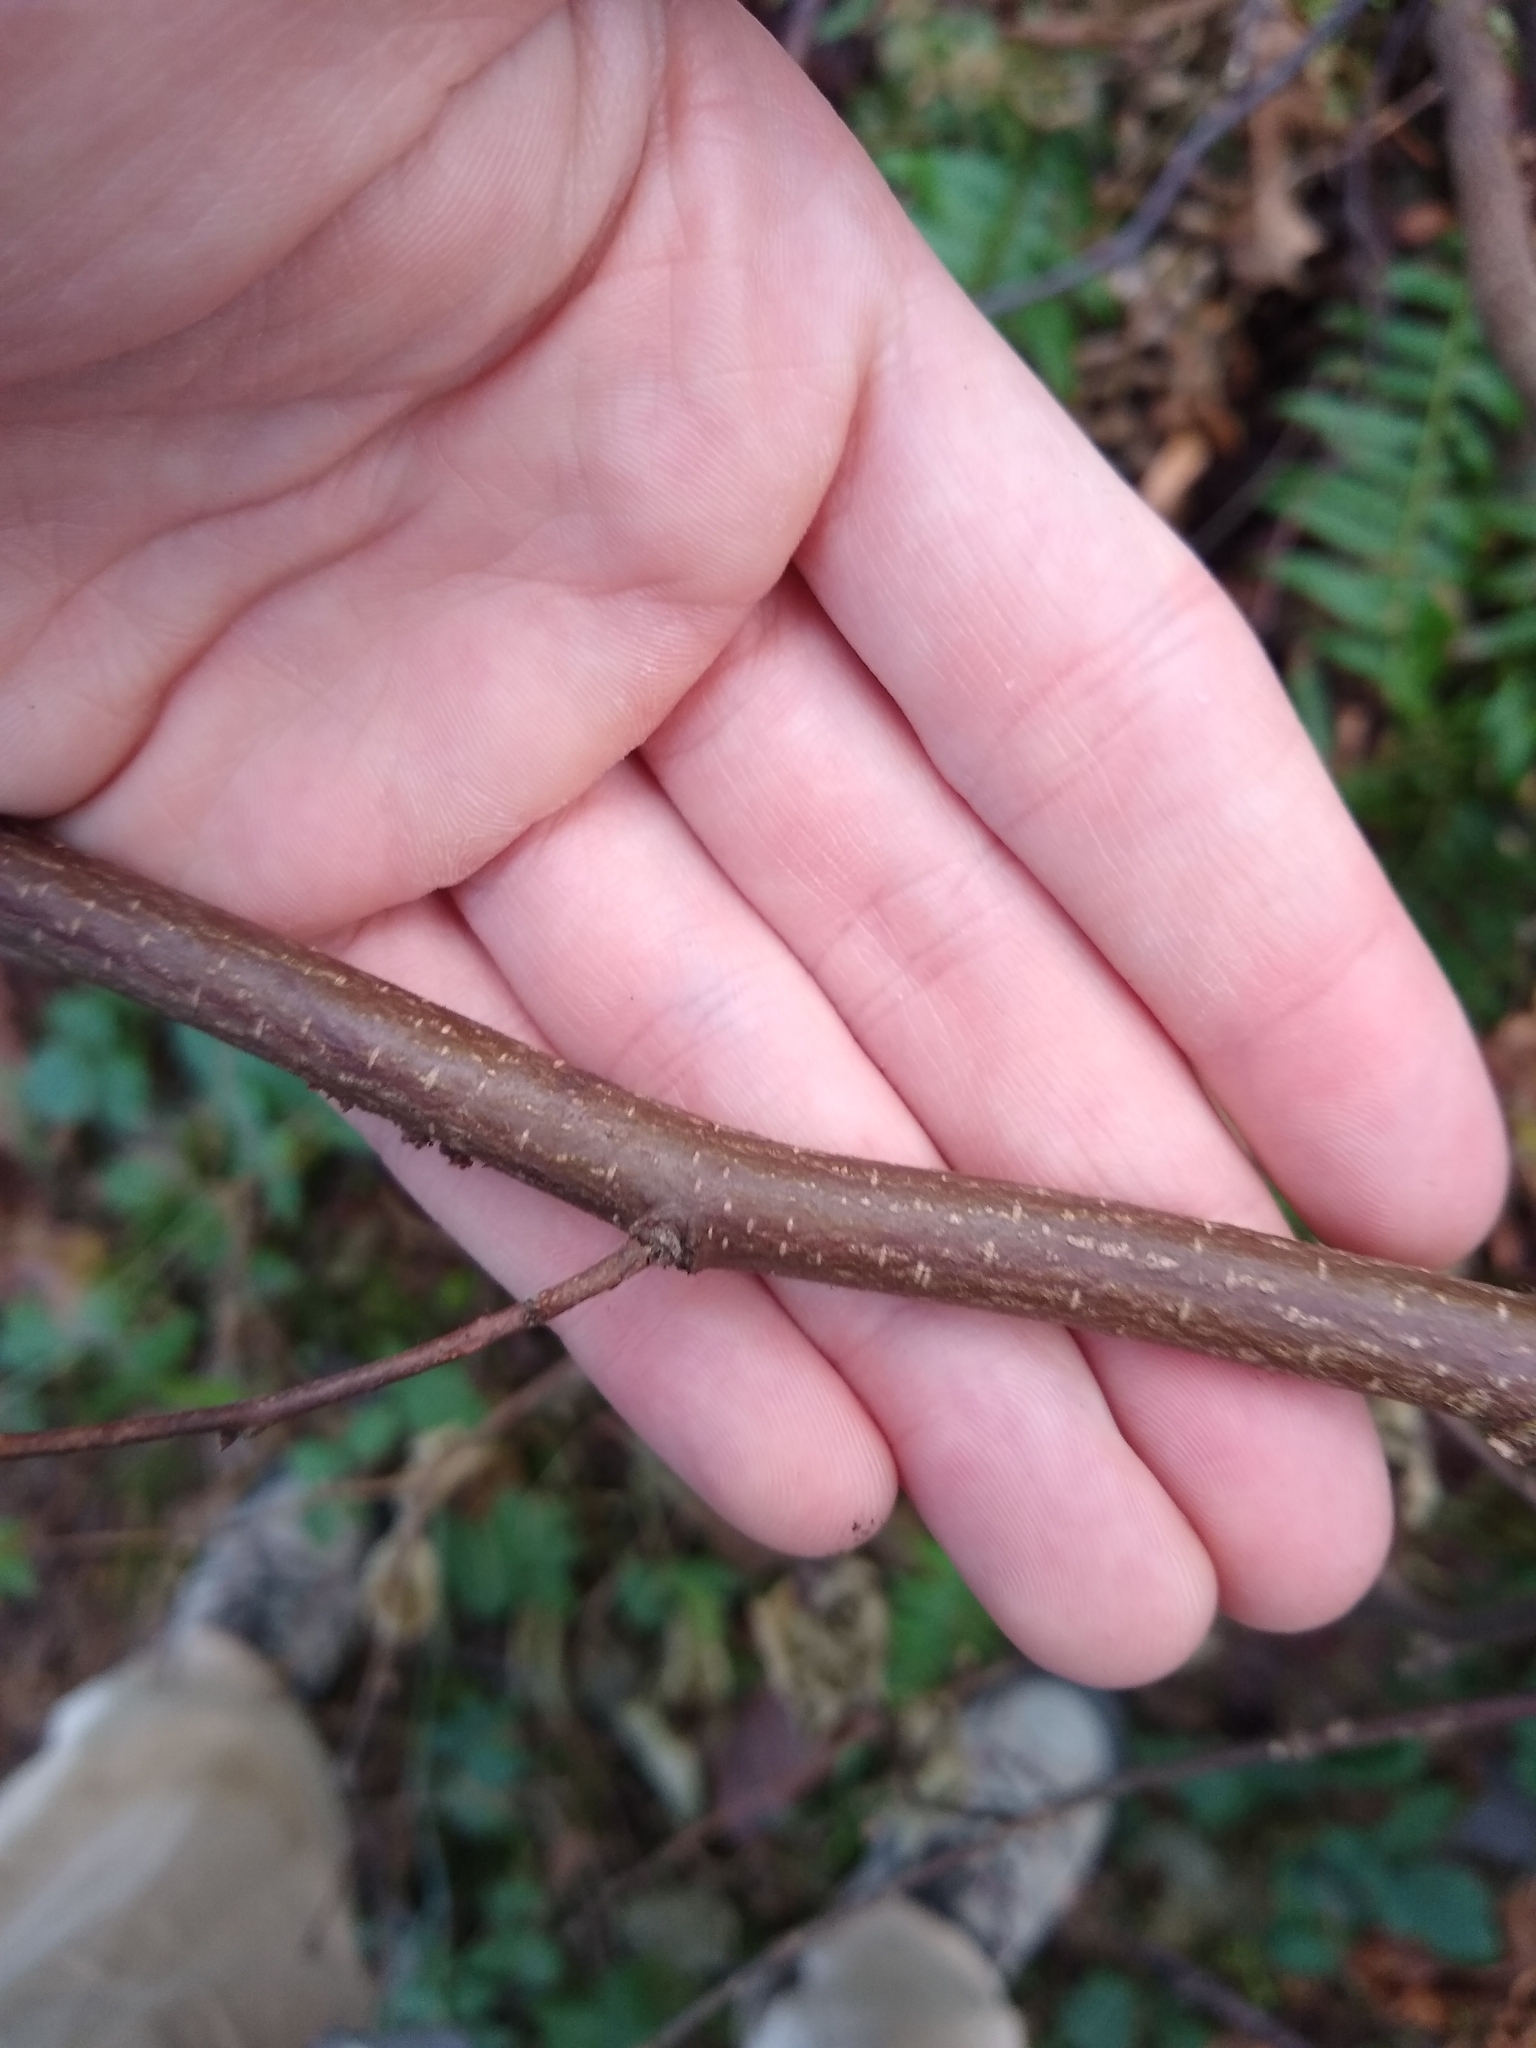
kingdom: Plantae
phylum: Tracheophyta
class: Magnoliopsida
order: Fagales
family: Betulaceae
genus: Corylus
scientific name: Corylus cornuta
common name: Beaked hazel
